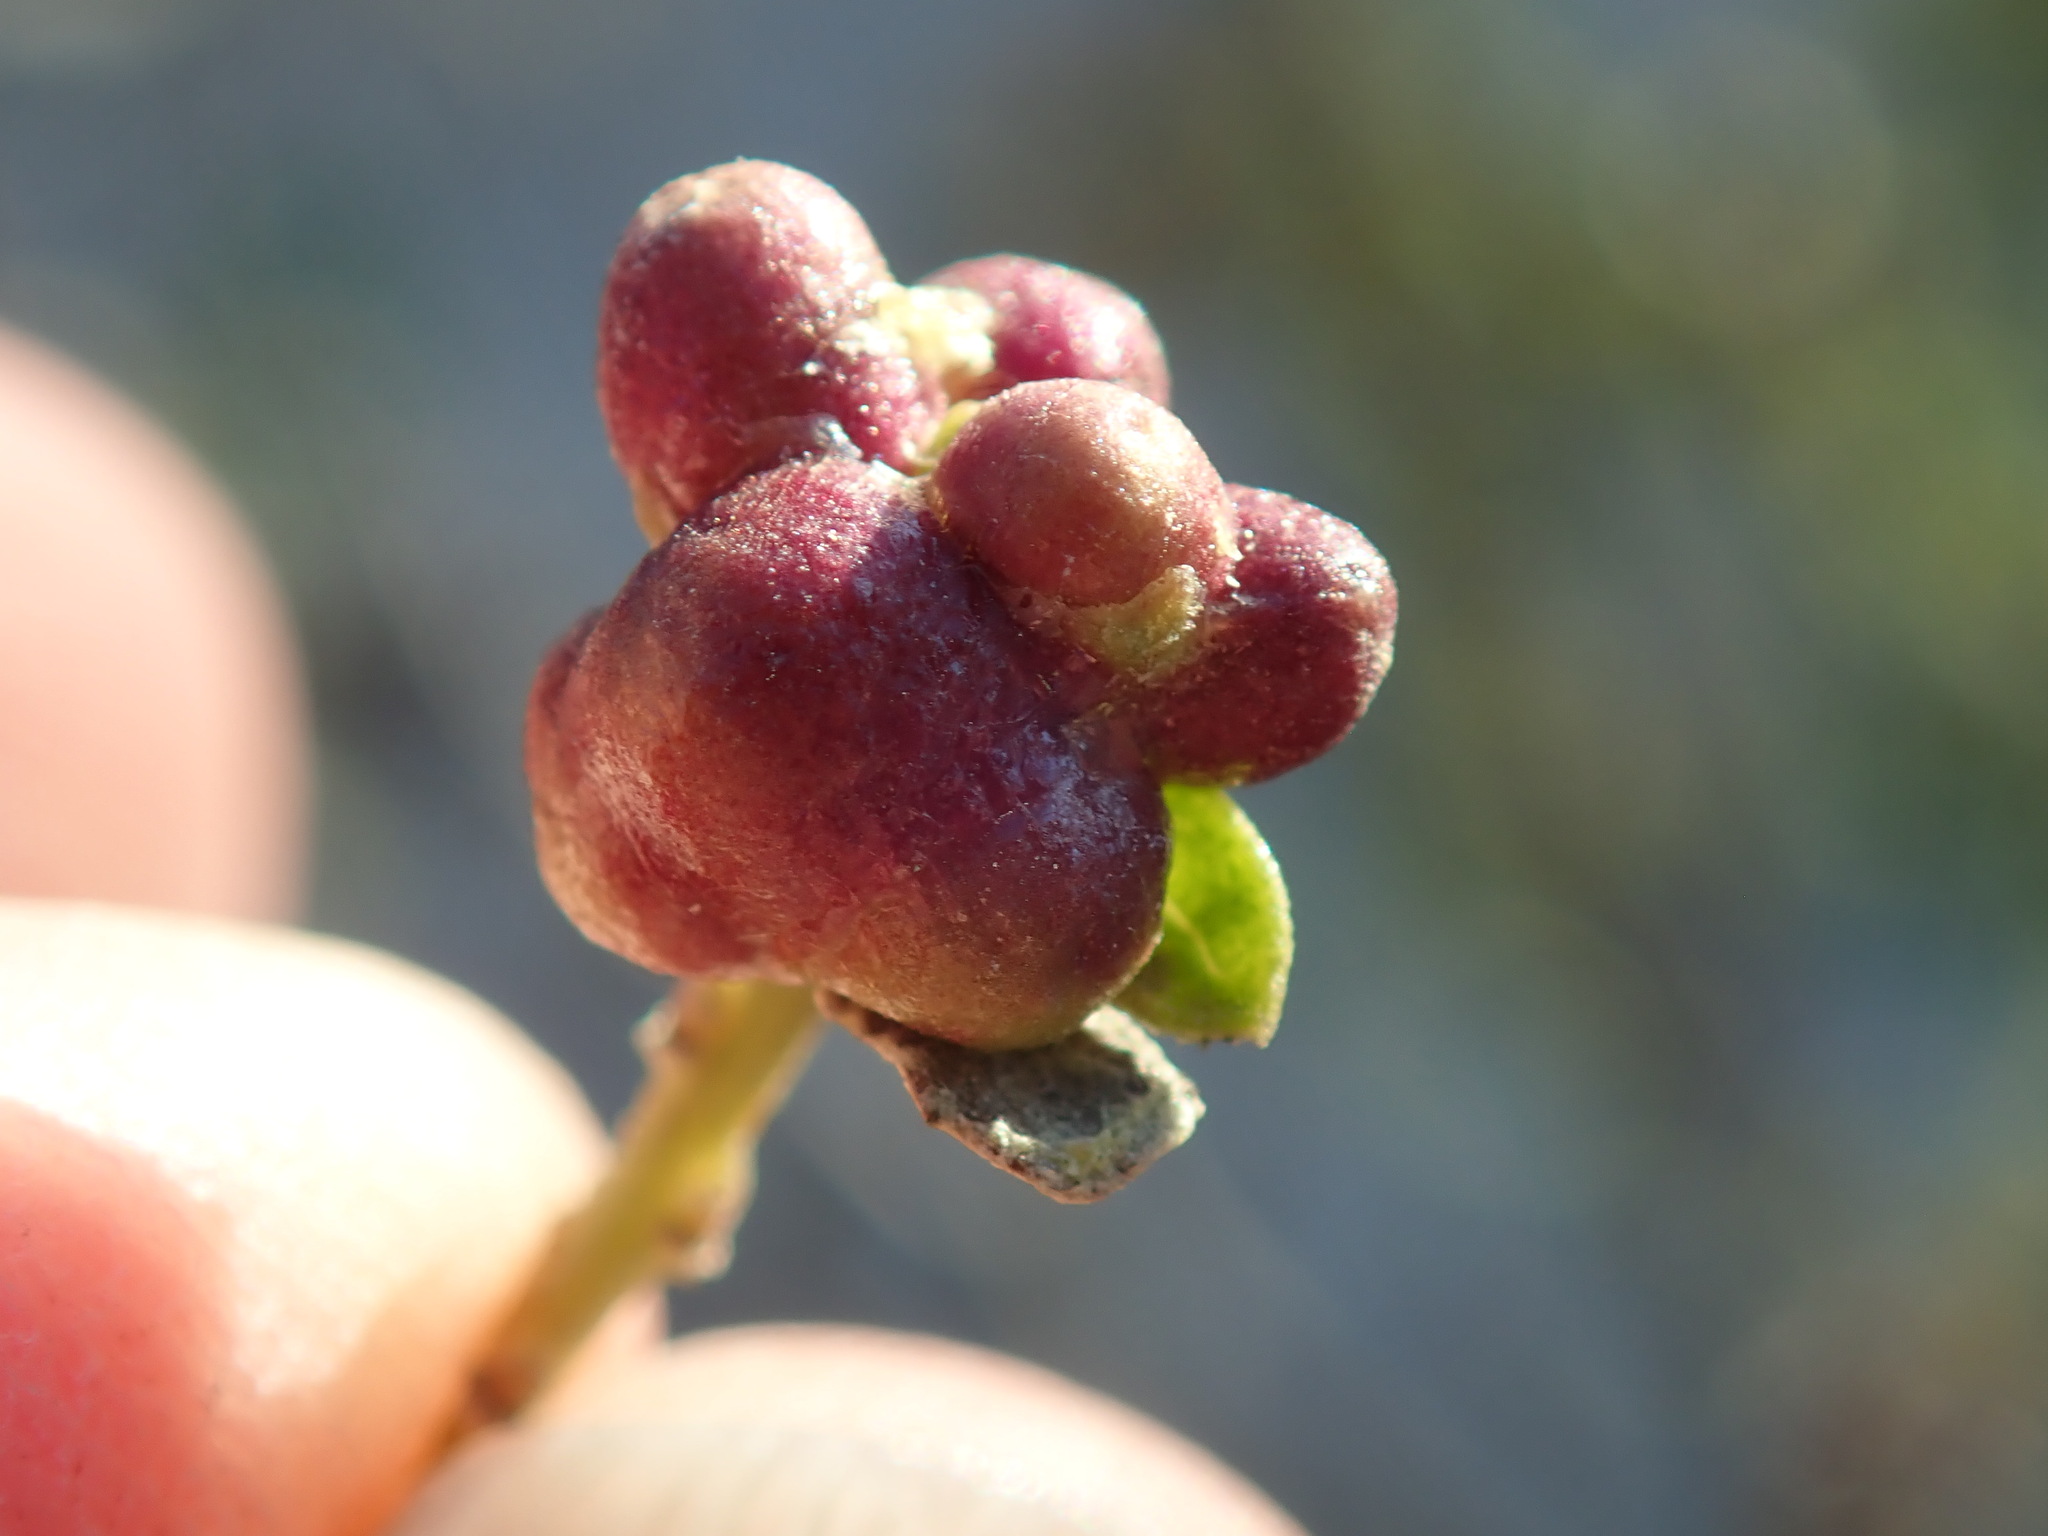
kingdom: Animalia
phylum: Arthropoda
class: Insecta
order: Diptera
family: Cecidomyiidae
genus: Rhopalomyia
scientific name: Rhopalomyia californica
